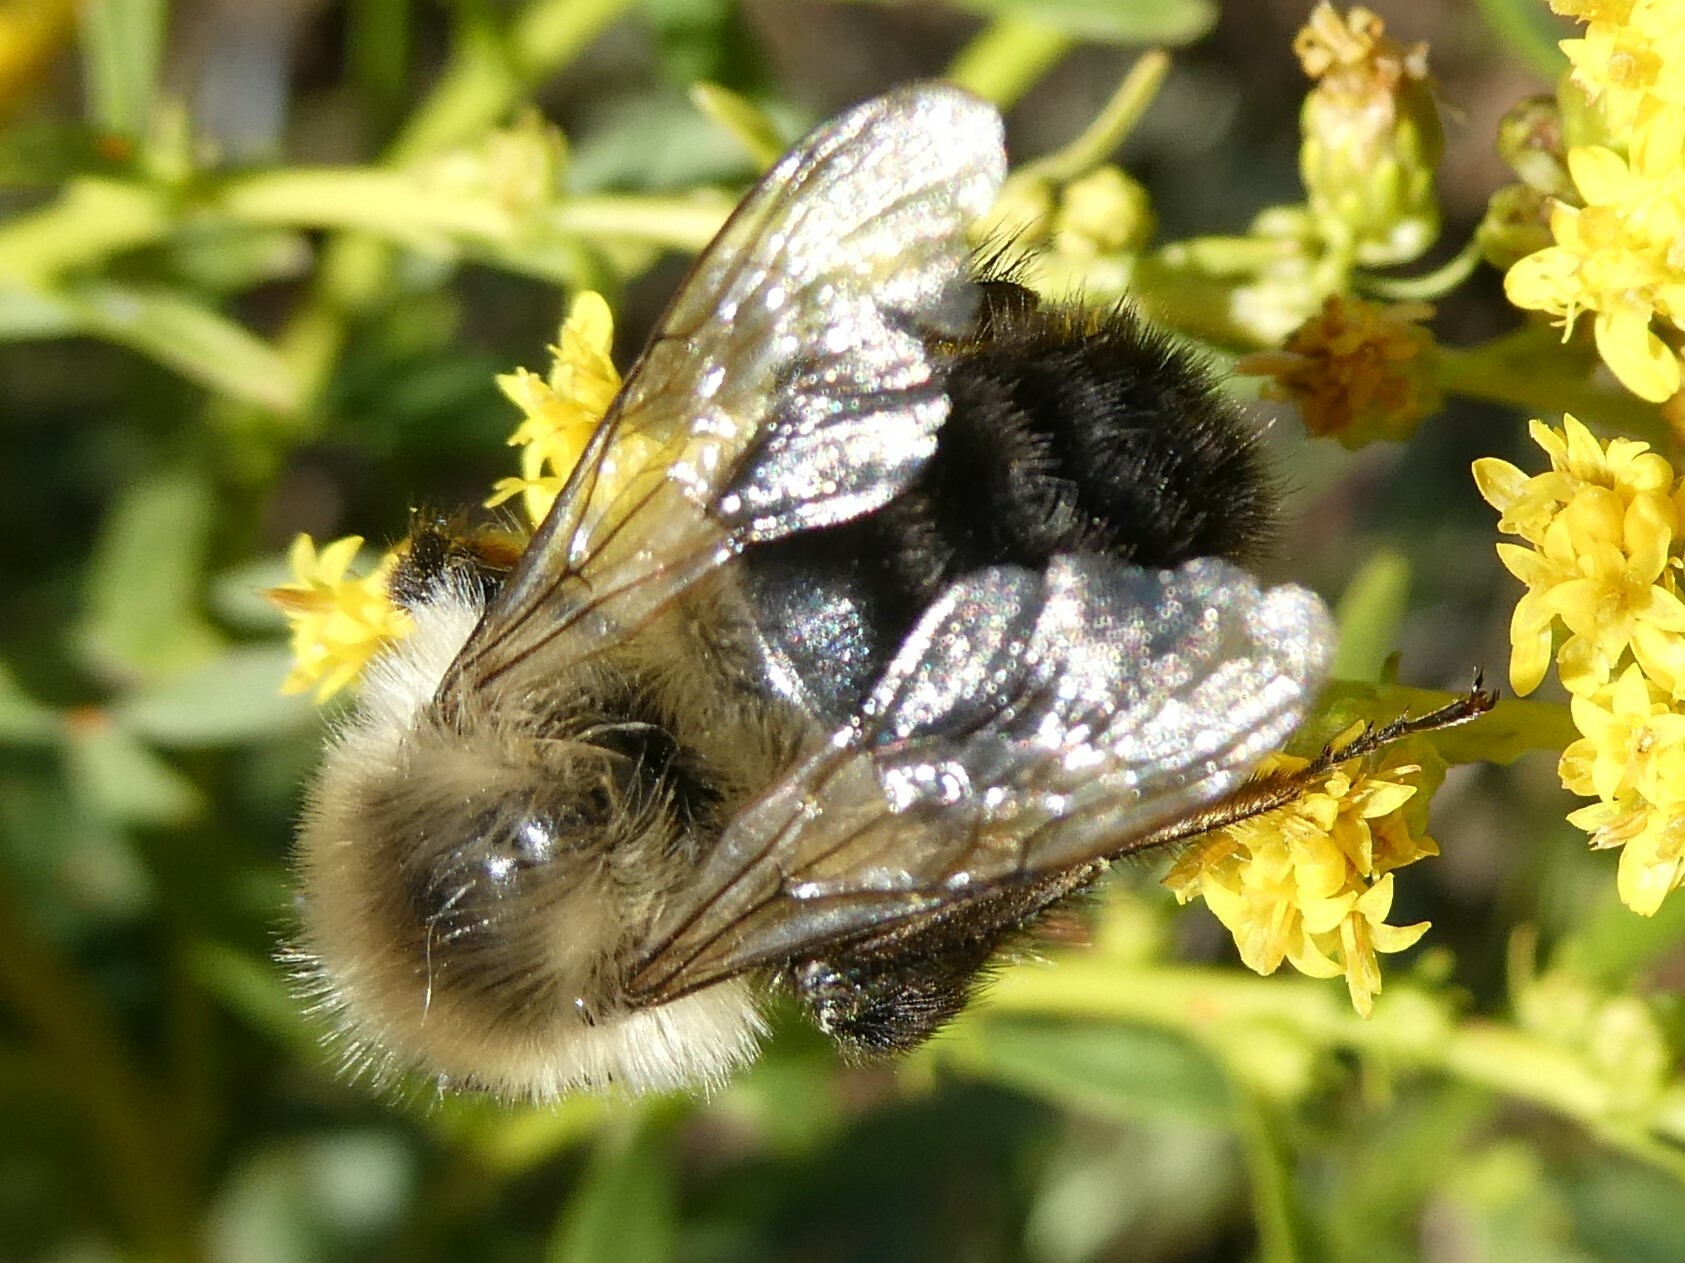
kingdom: Animalia
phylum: Arthropoda
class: Insecta
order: Hymenoptera
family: Apidae
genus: Bombus
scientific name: Bombus impatiens
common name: Common eastern bumble bee
